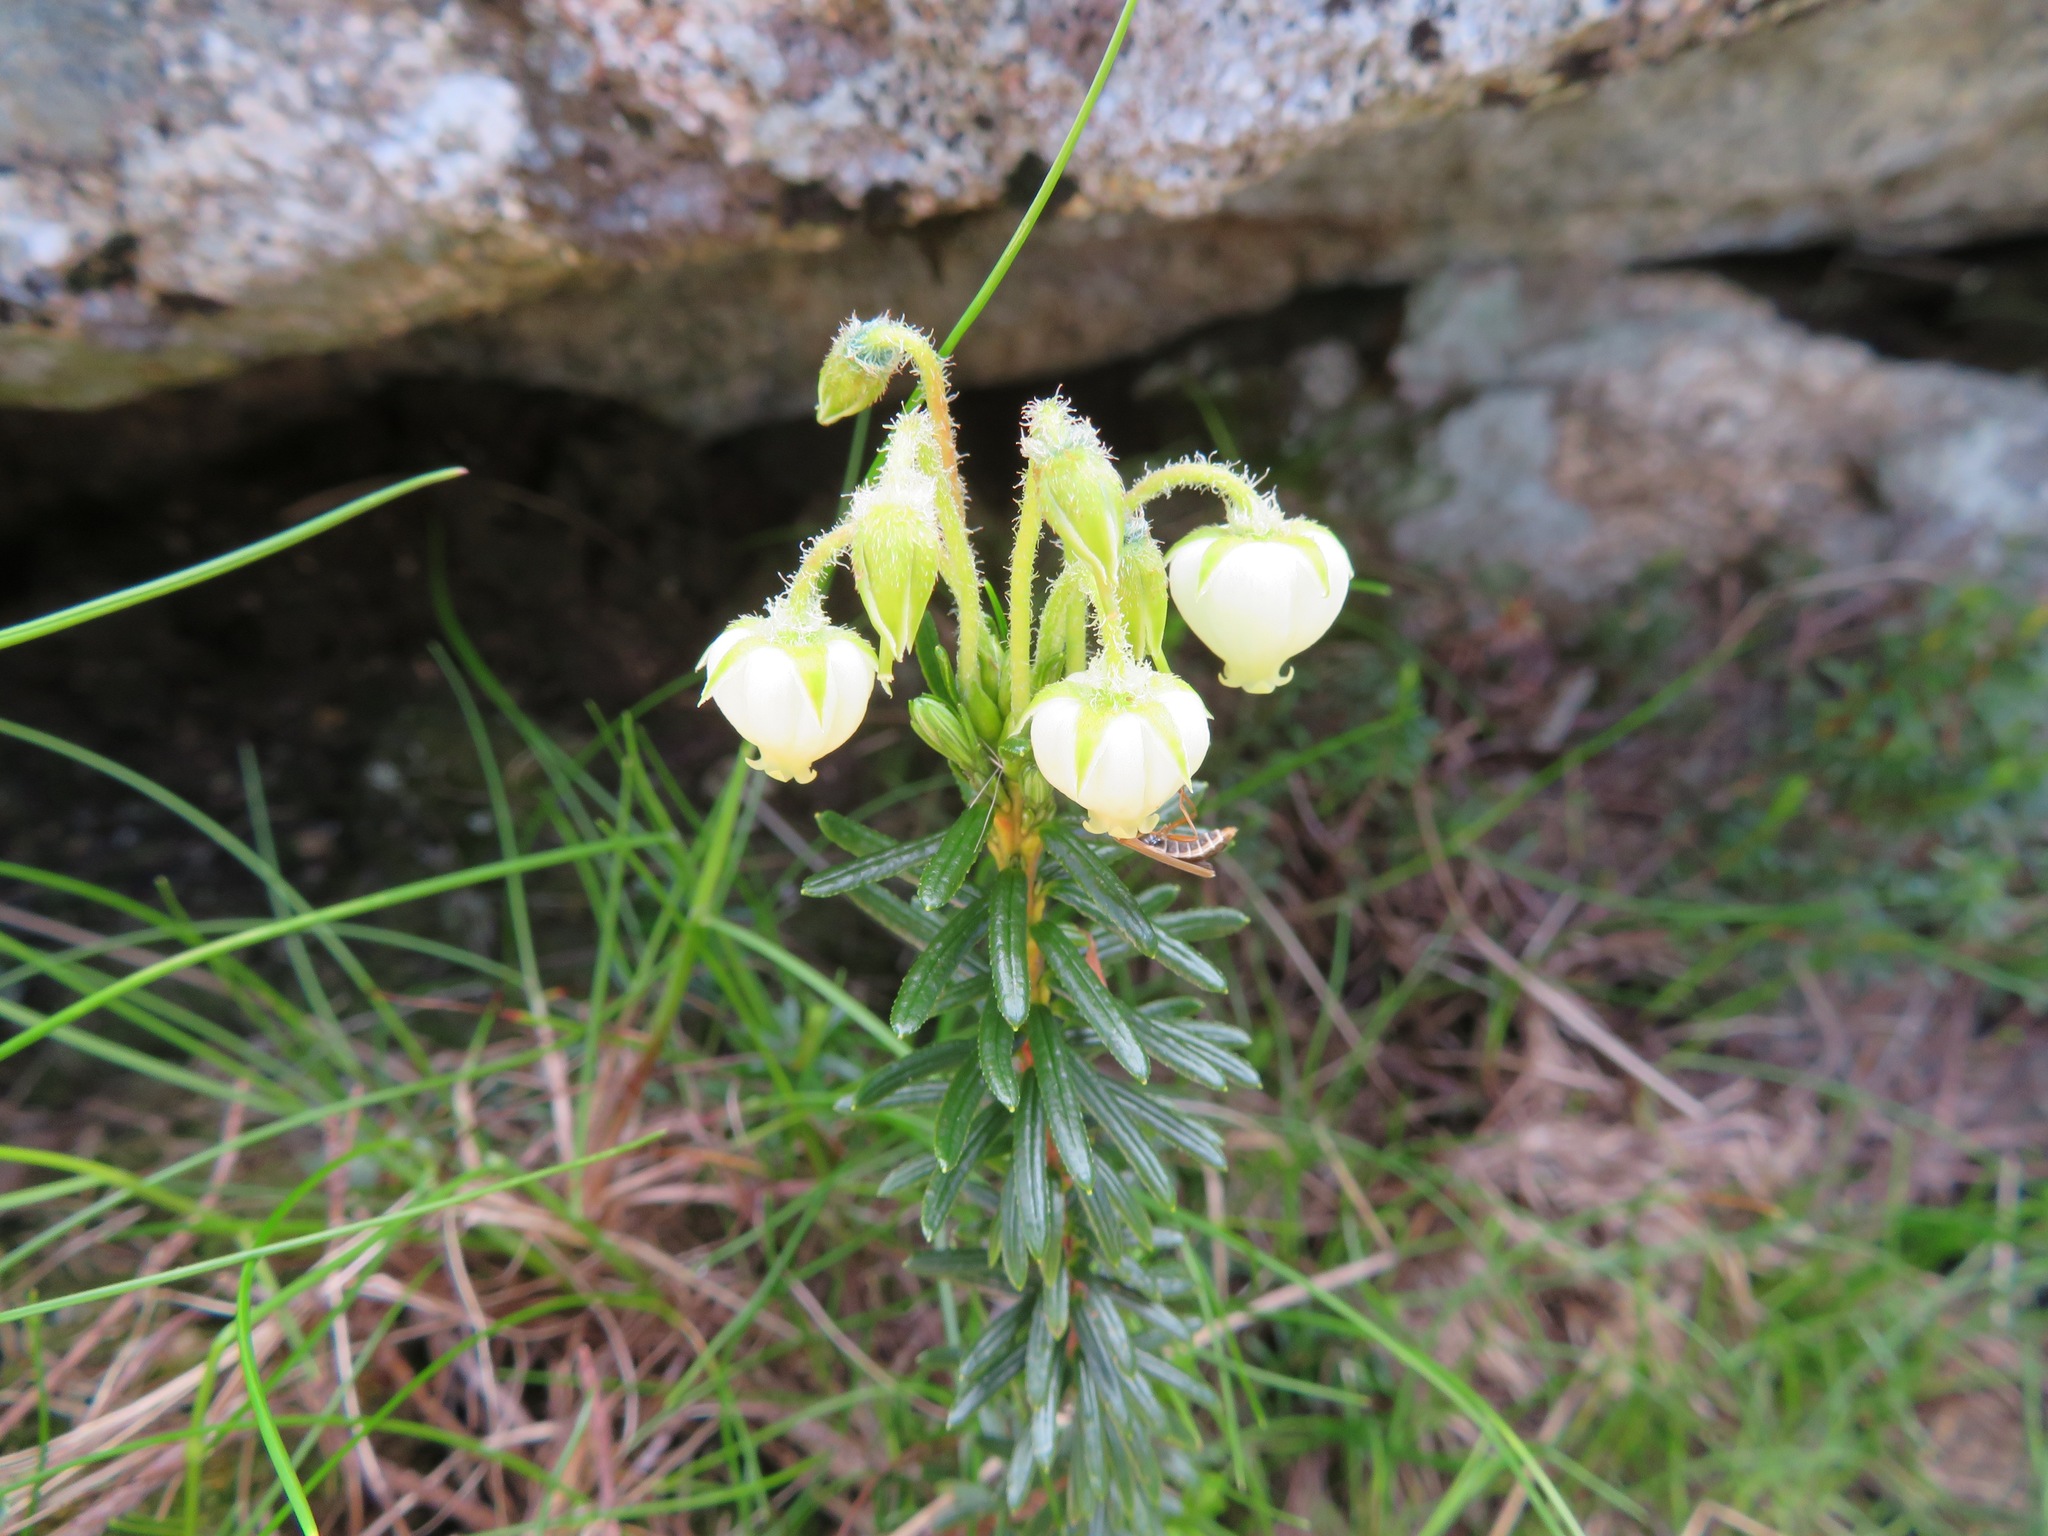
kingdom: Plantae
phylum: Tracheophyta
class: Magnoliopsida
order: Ericales
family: Ericaceae
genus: Phyllodoce
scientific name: Phyllodoce aleutica
